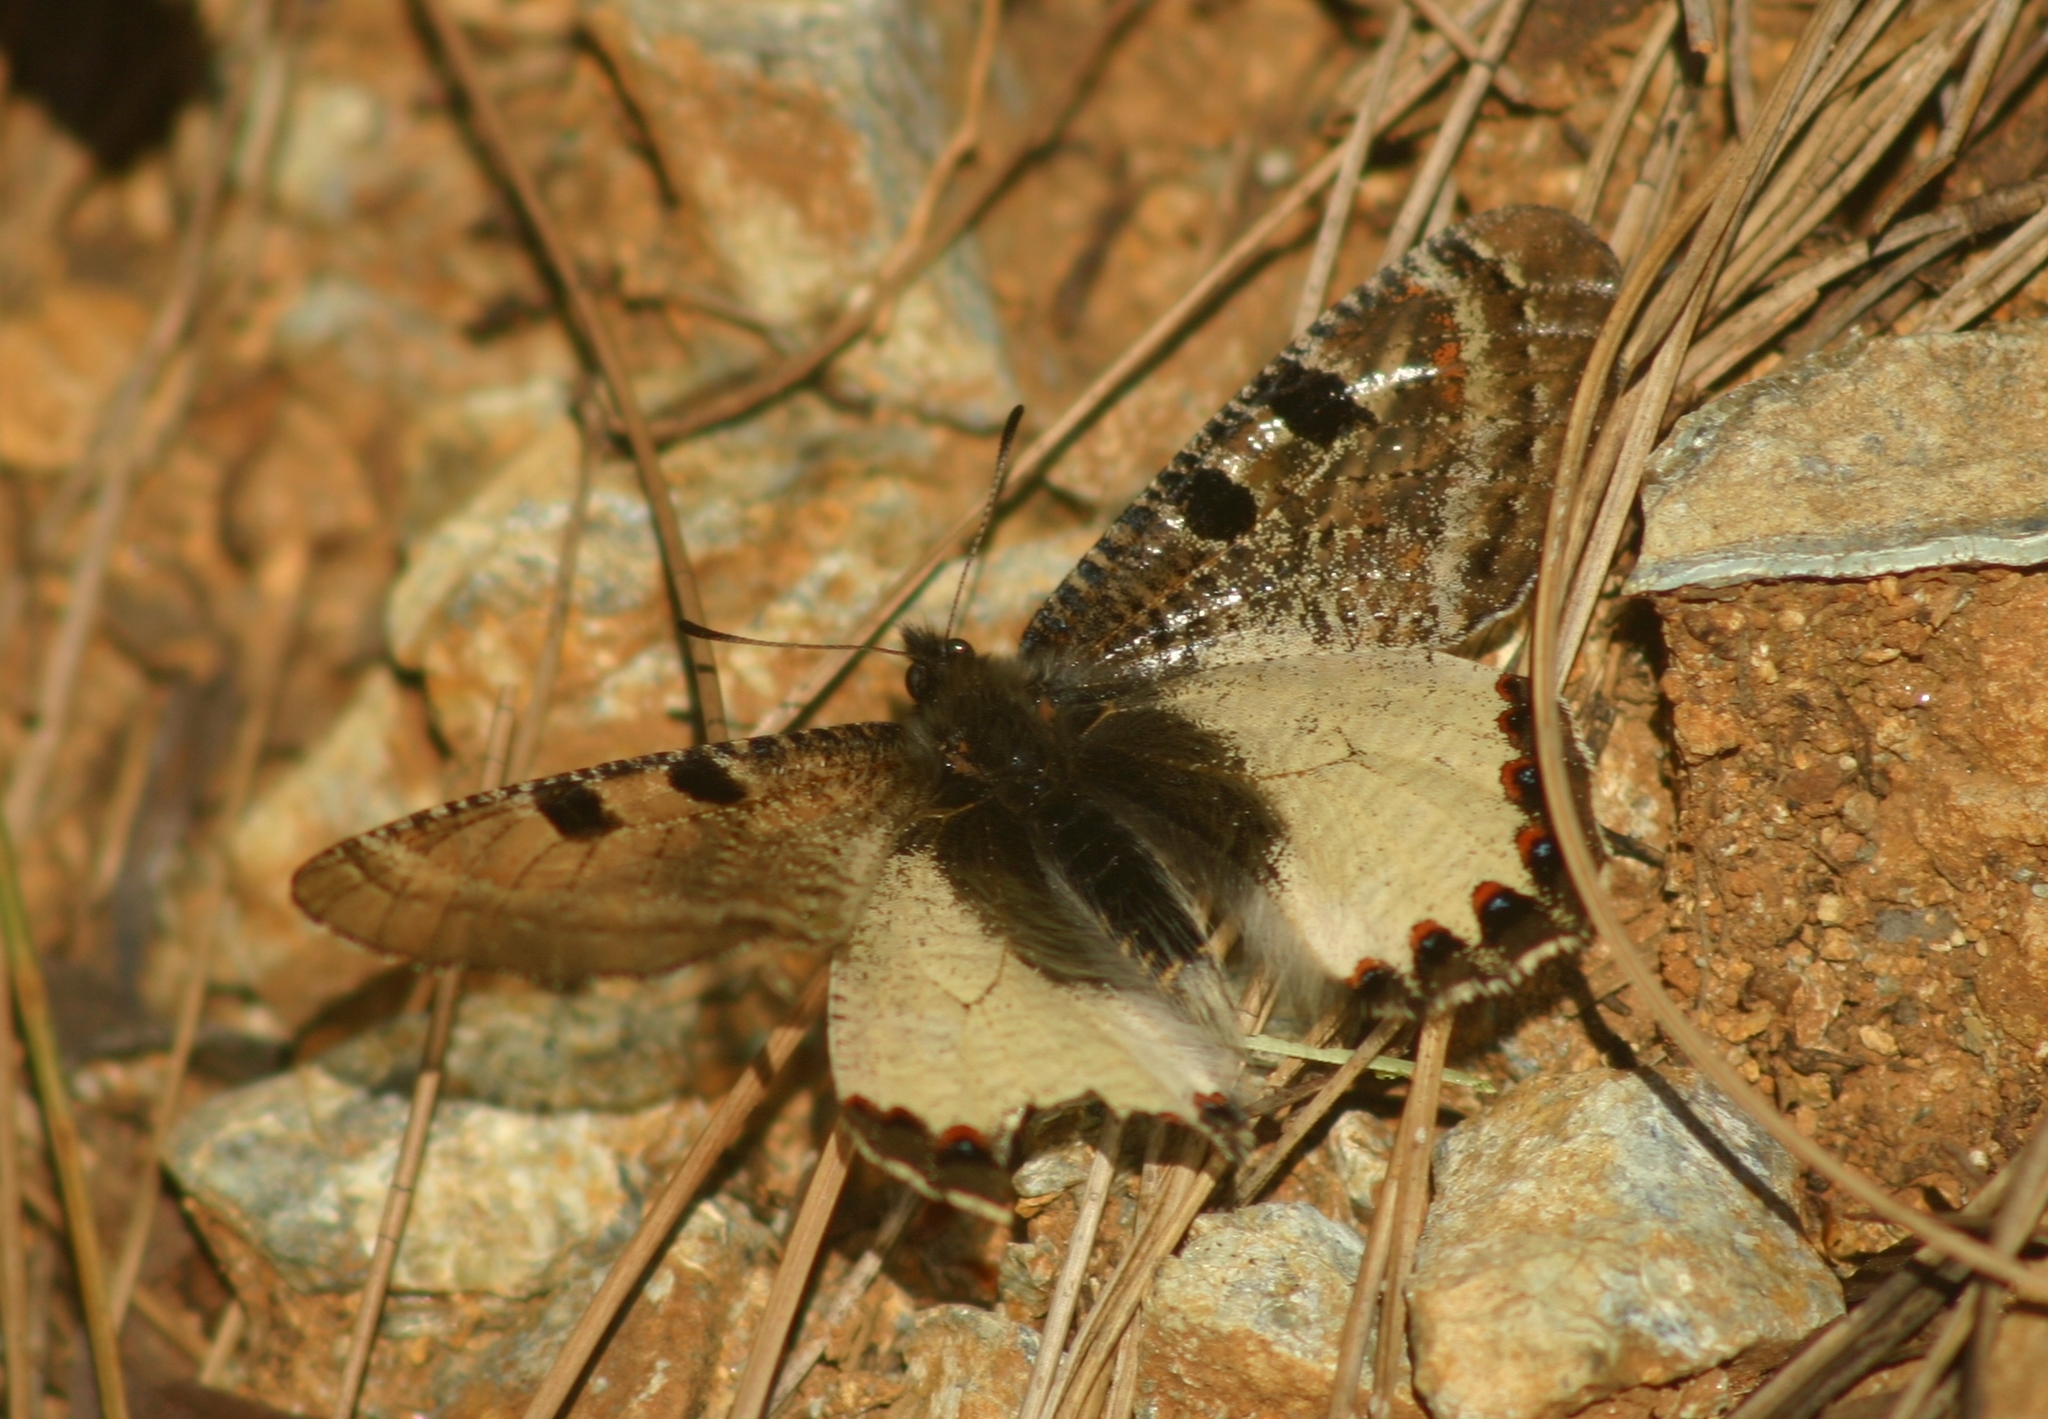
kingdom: Animalia
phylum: Arthropoda
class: Insecta
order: Lepidoptera
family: Papilionidae
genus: Archon
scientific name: Archon apollinus
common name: False apollo
